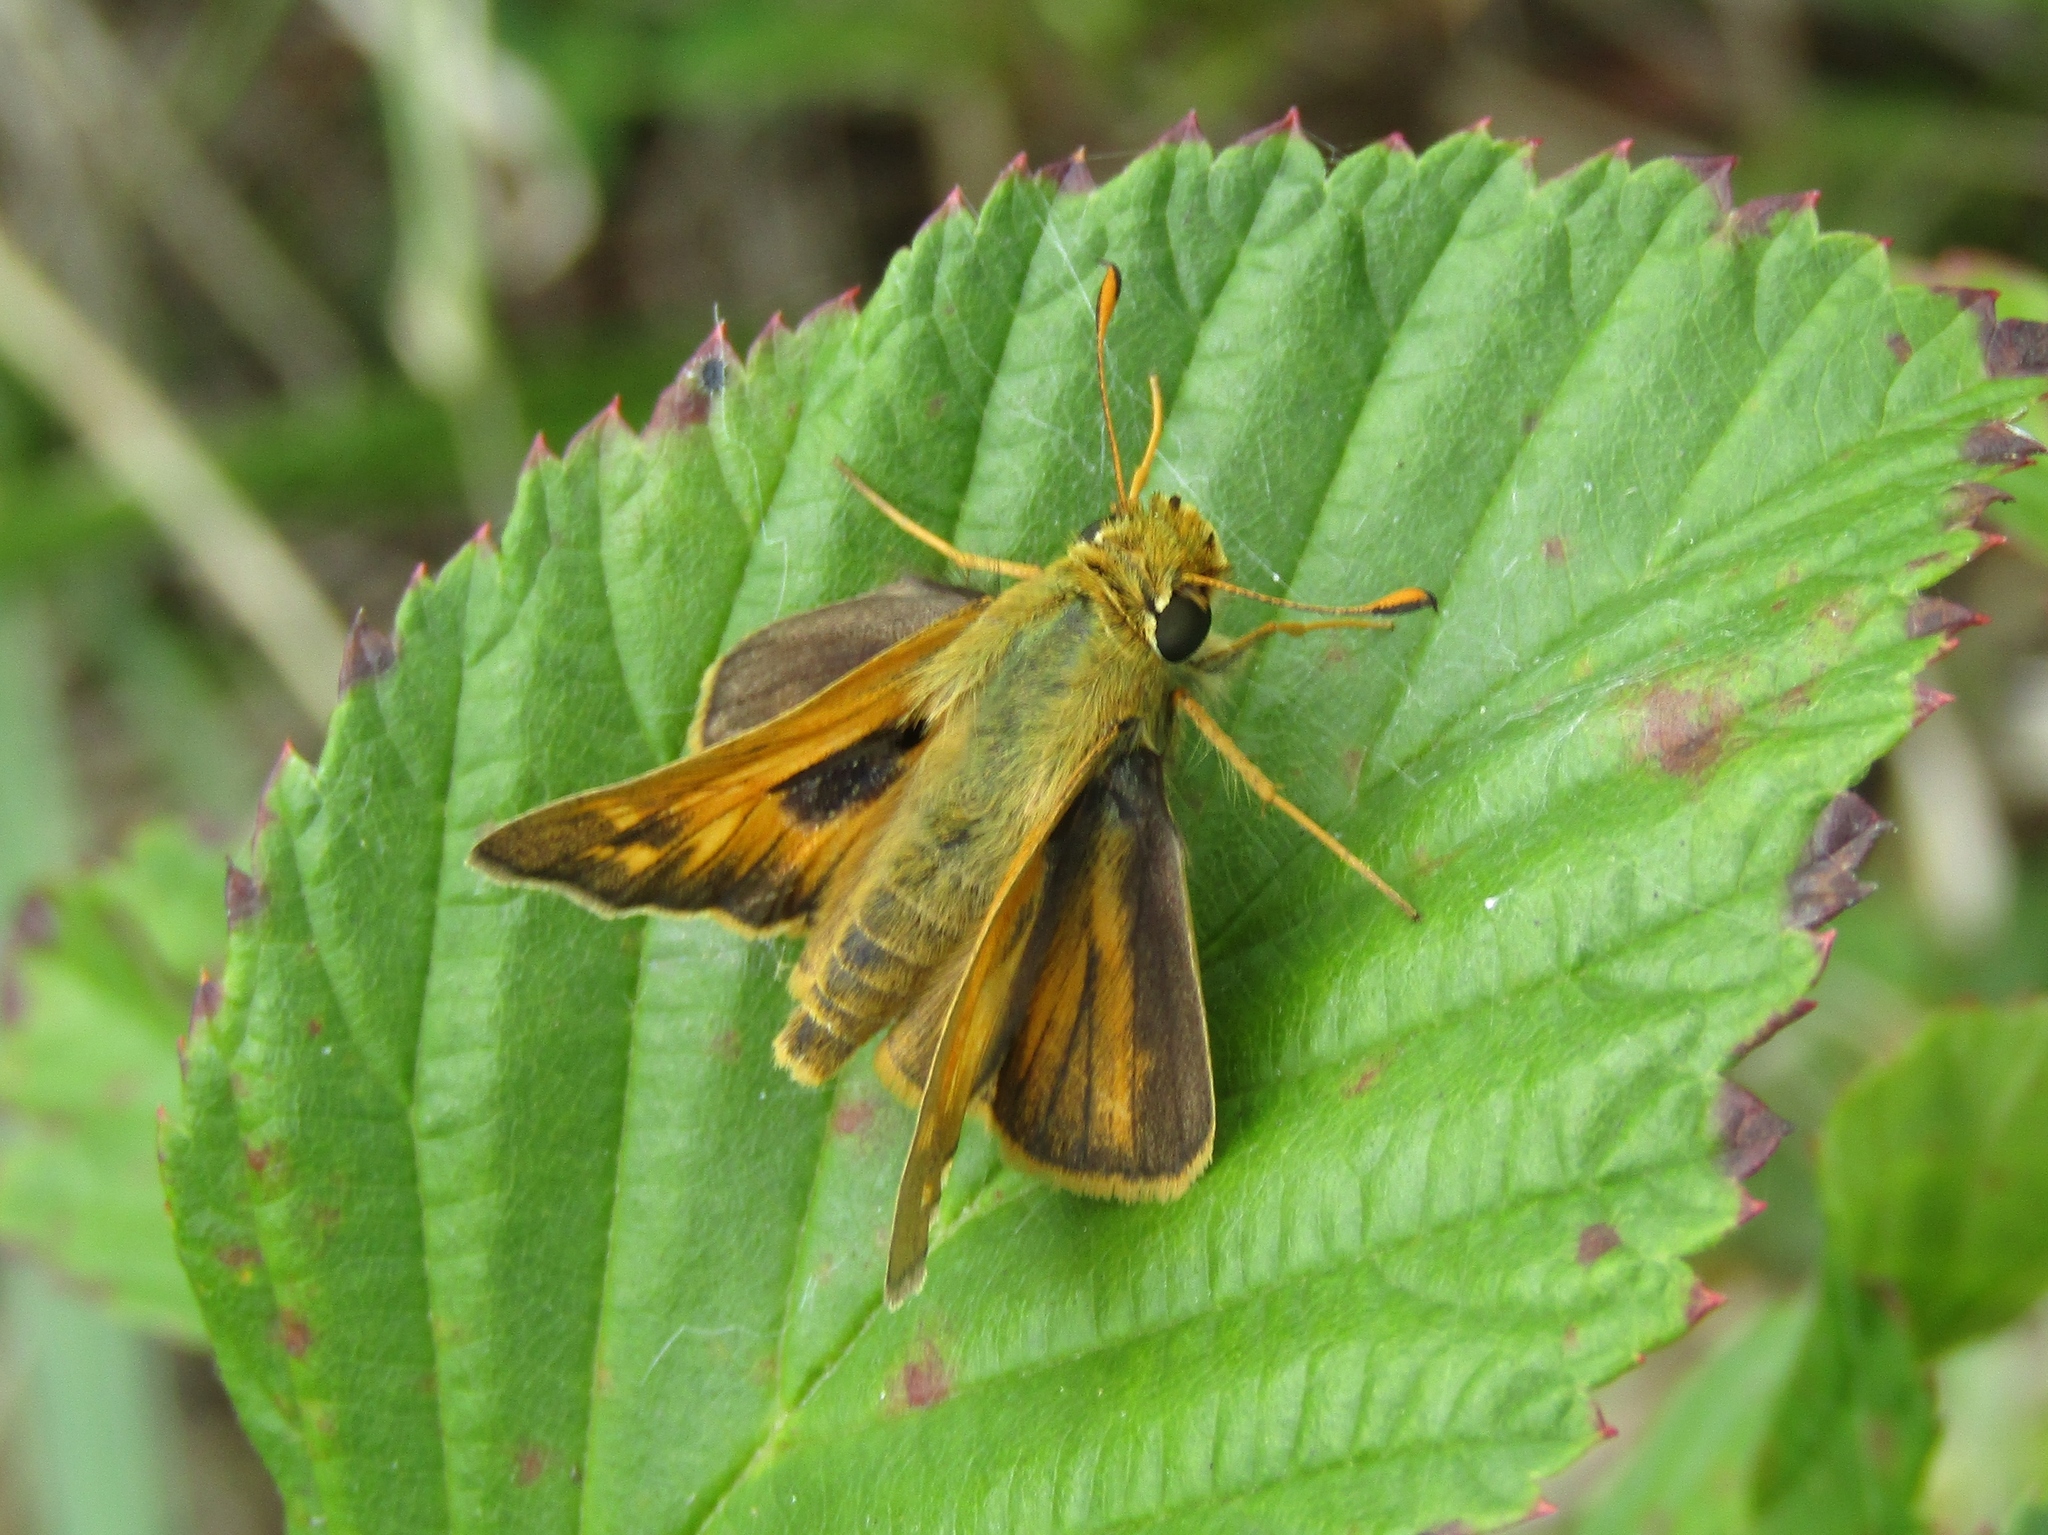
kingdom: Animalia
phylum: Arthropoda
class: Insecta
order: Lepidoptera
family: Hesperiidae
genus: Atalopedes
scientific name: Atalopedes
